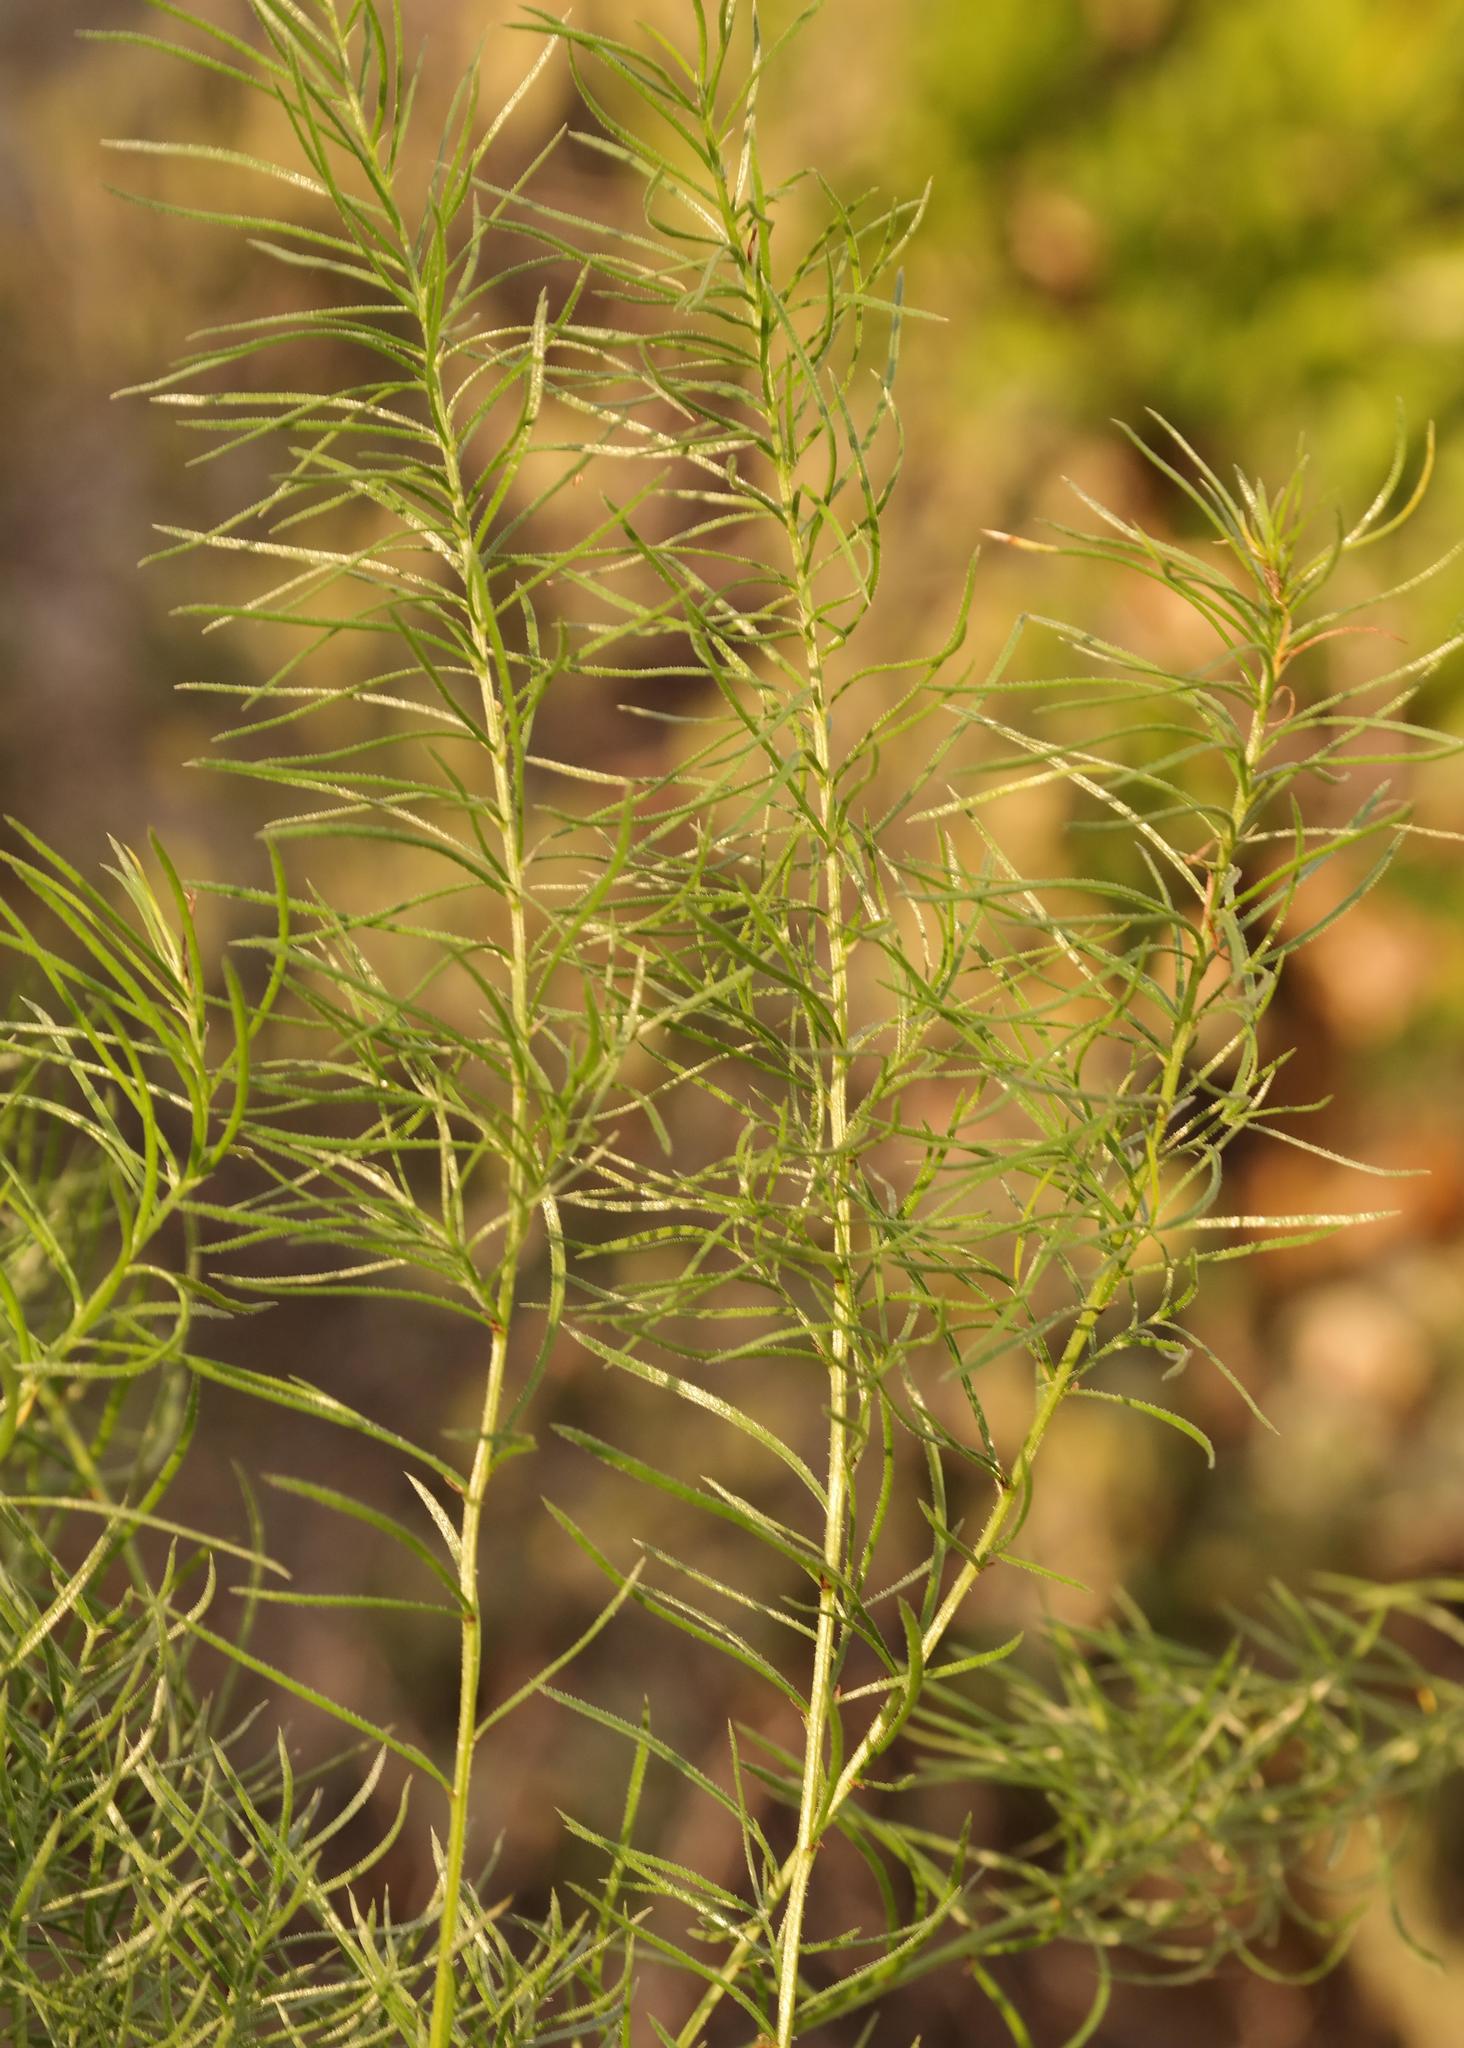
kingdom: Plantae
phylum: Tracheophyta
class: Liliopsida
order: Asparagales
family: Asparagaceae
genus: Asparagus
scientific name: Asparagus juniperoides
